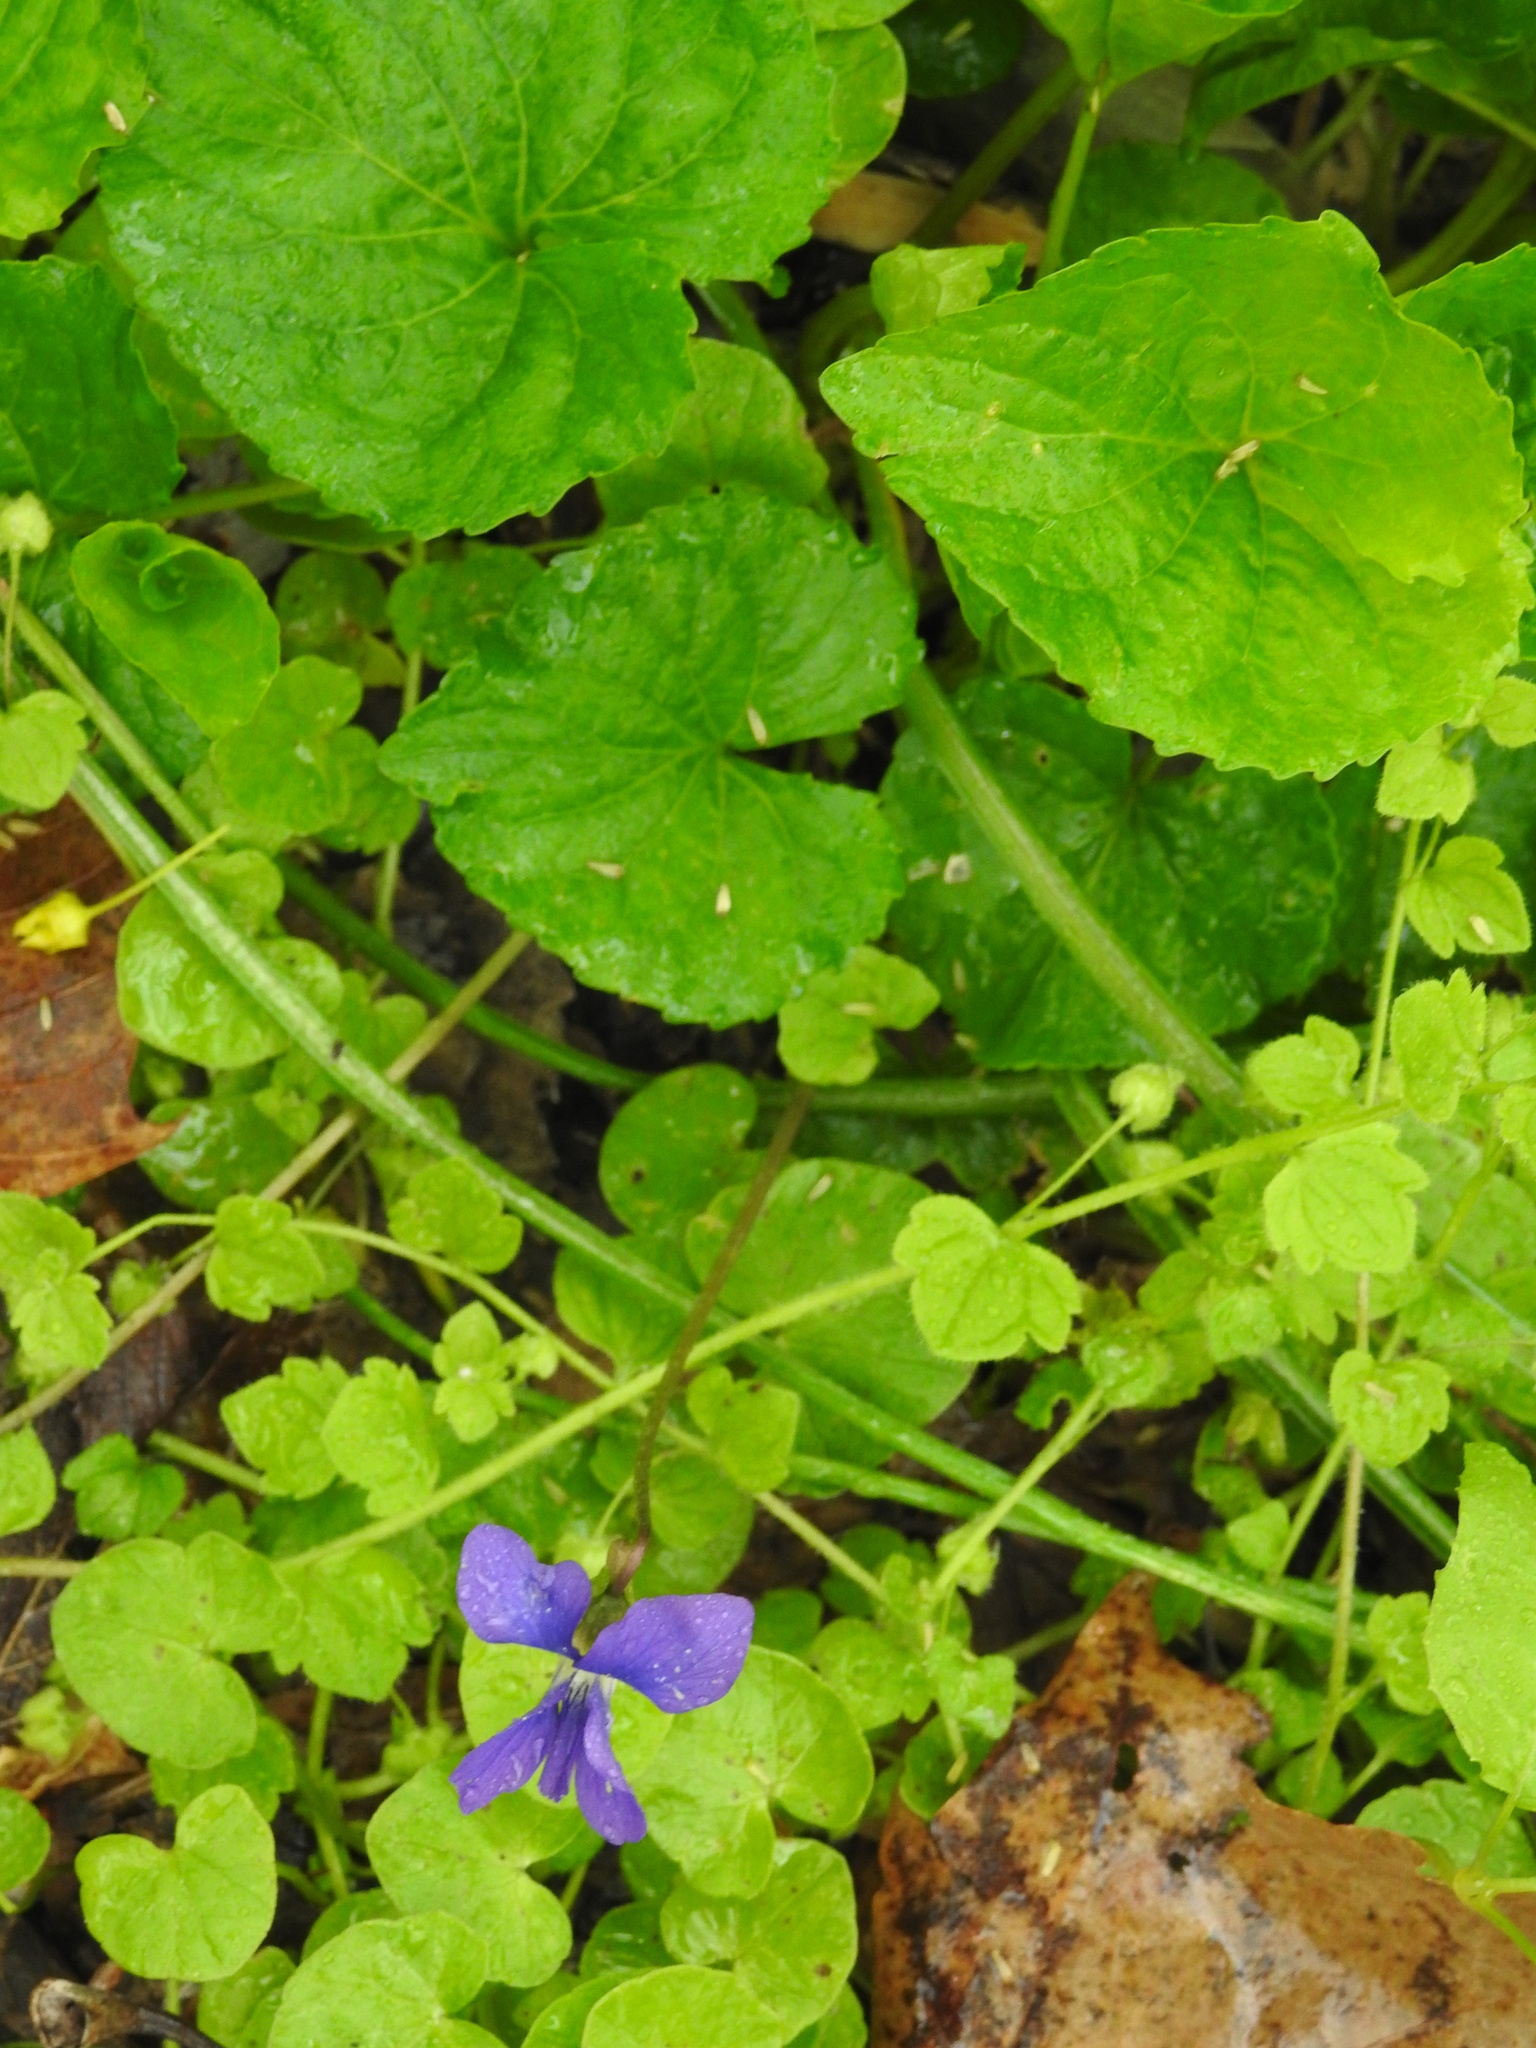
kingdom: Plantae
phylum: Tracheophyta
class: Magnoliopsida
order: Malpighiales
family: Violaceae
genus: Viola
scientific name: Viola sororia
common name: Dooryard violet
